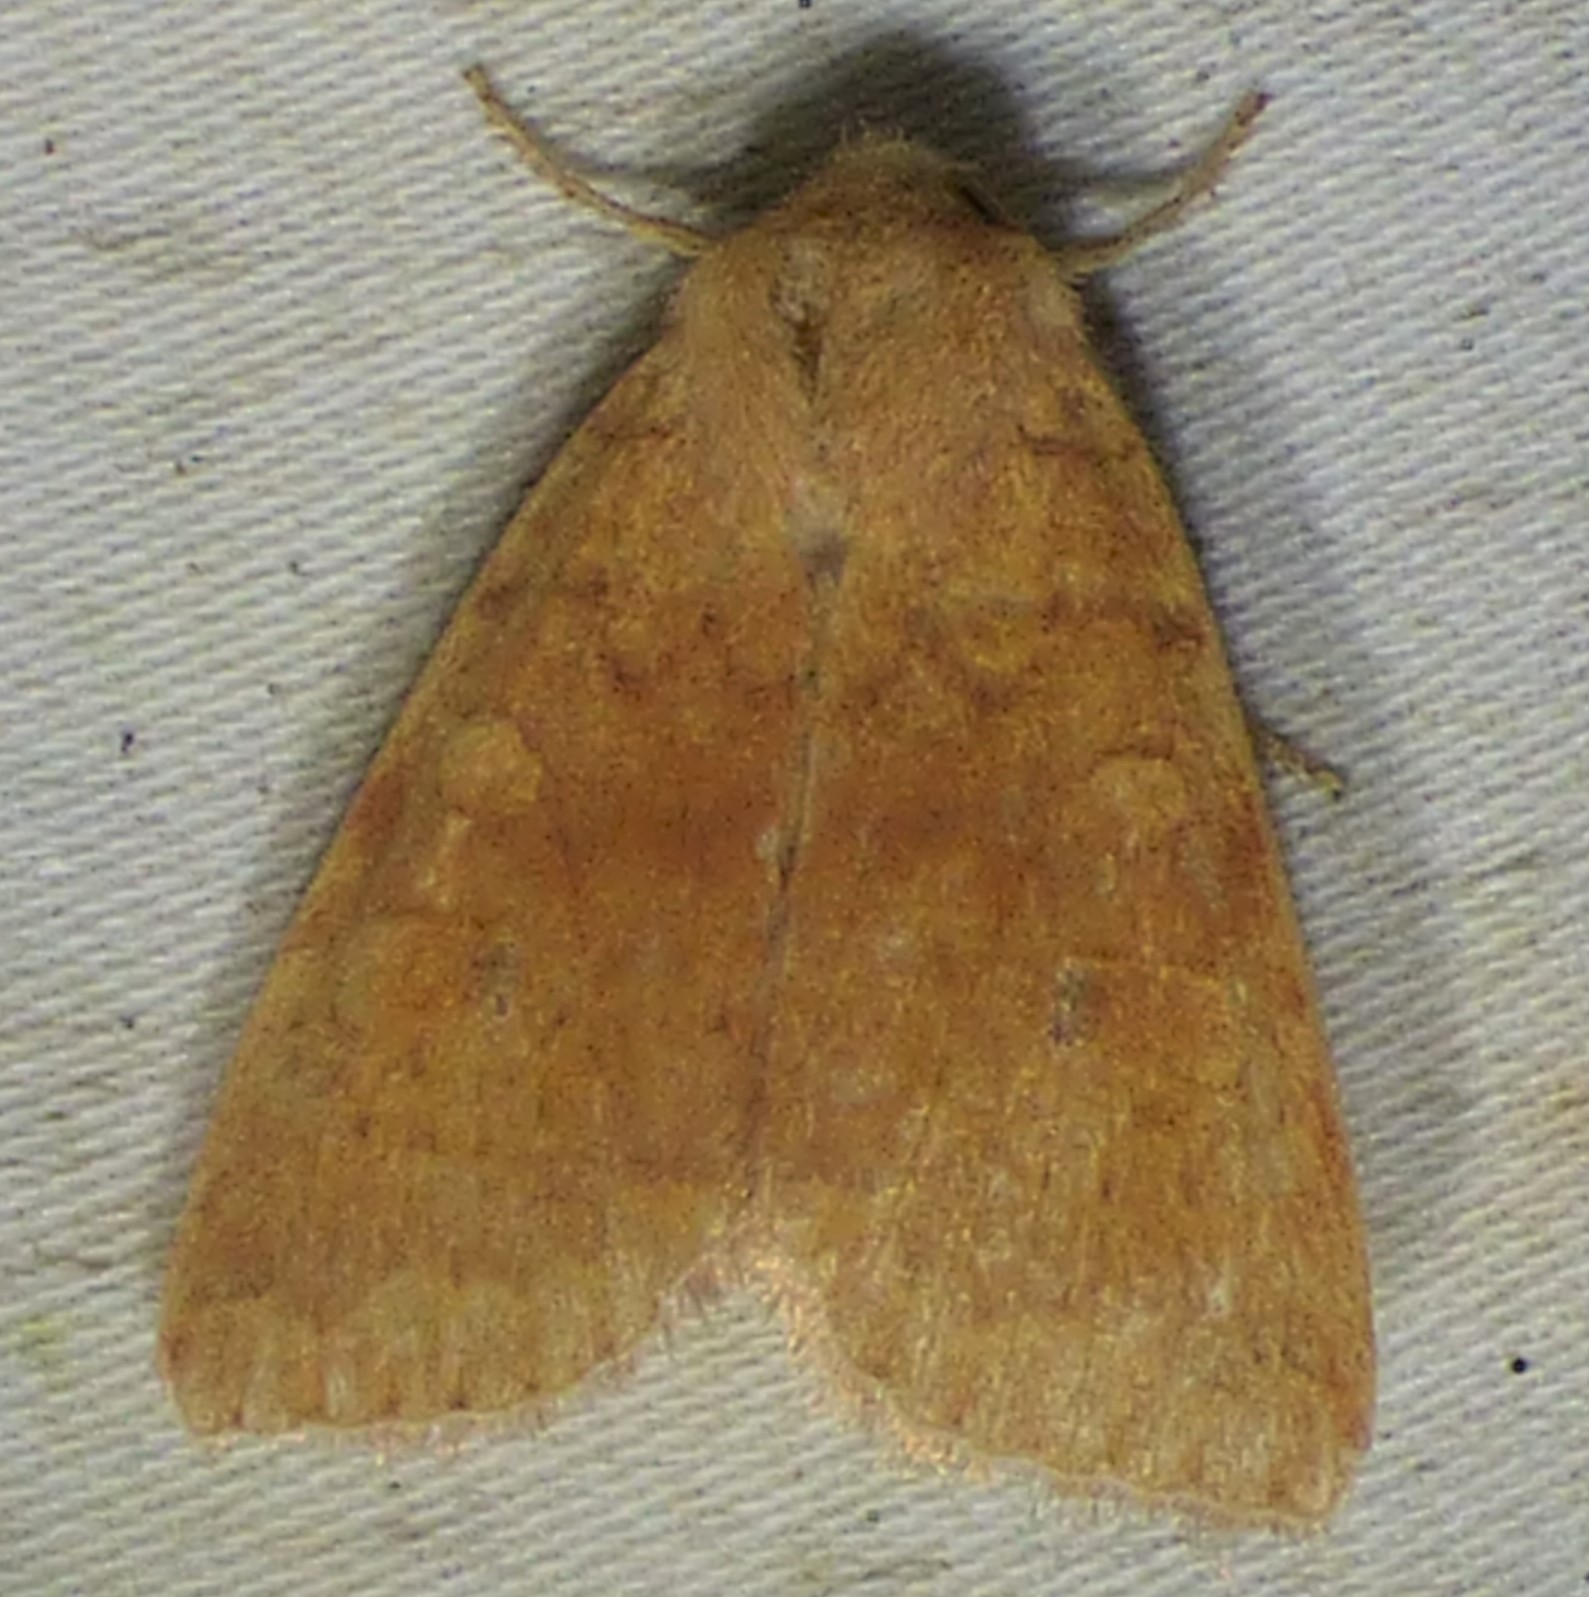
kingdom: Animalia
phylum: Arthropoda
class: Insecta
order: Lepidoptera
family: Noctuidae
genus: Agrochola
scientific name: Agrochola bicolorago
